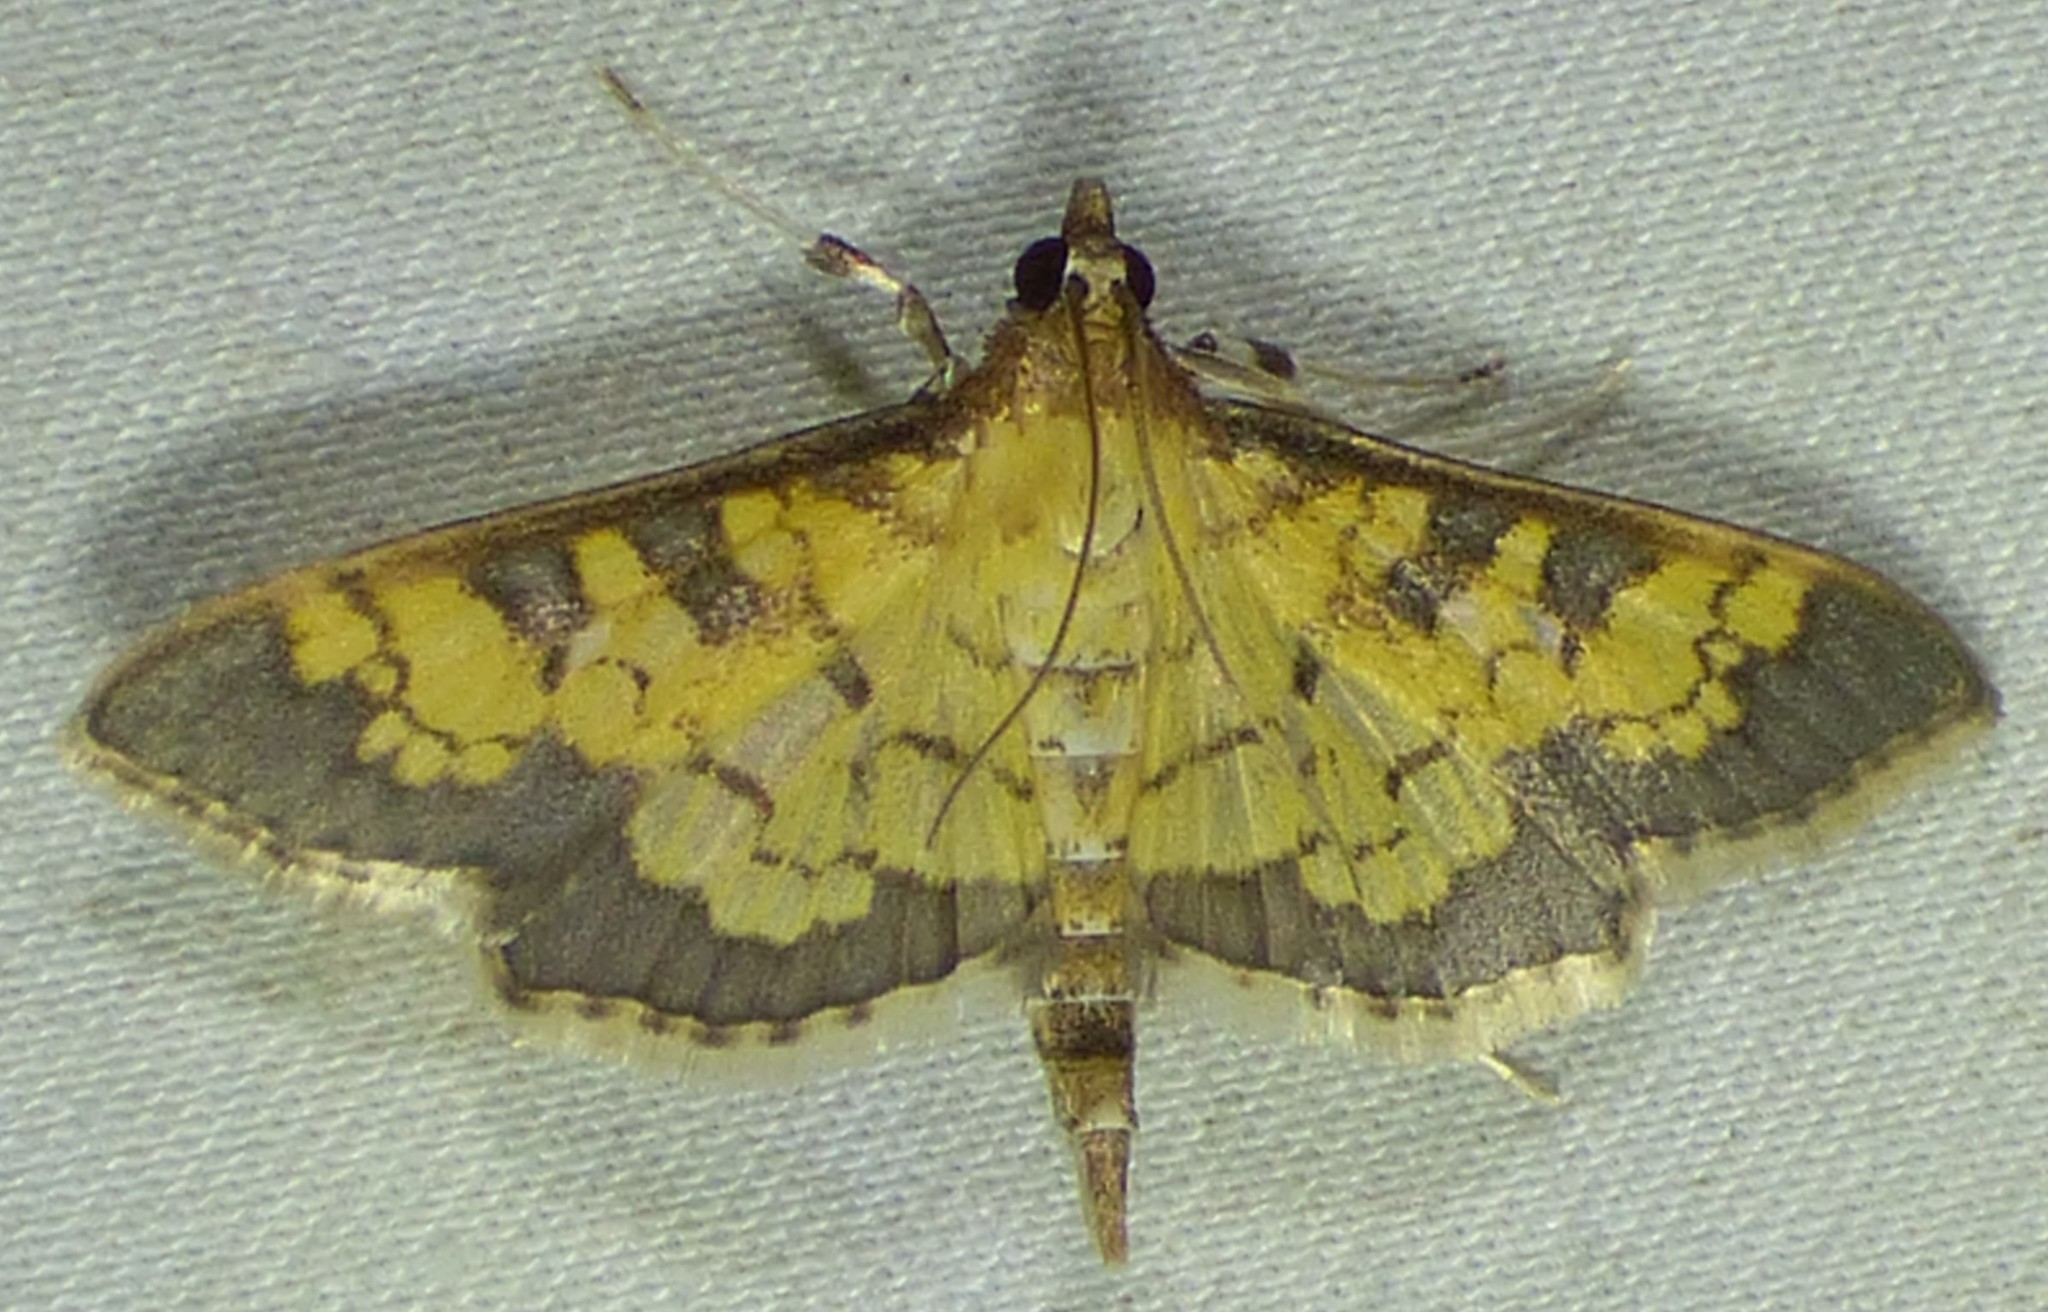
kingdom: Animalia
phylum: Arthropoda
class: Insecta
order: Lepidoptera
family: Crambidae
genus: Epipagis
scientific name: Epipagis adipaloides
